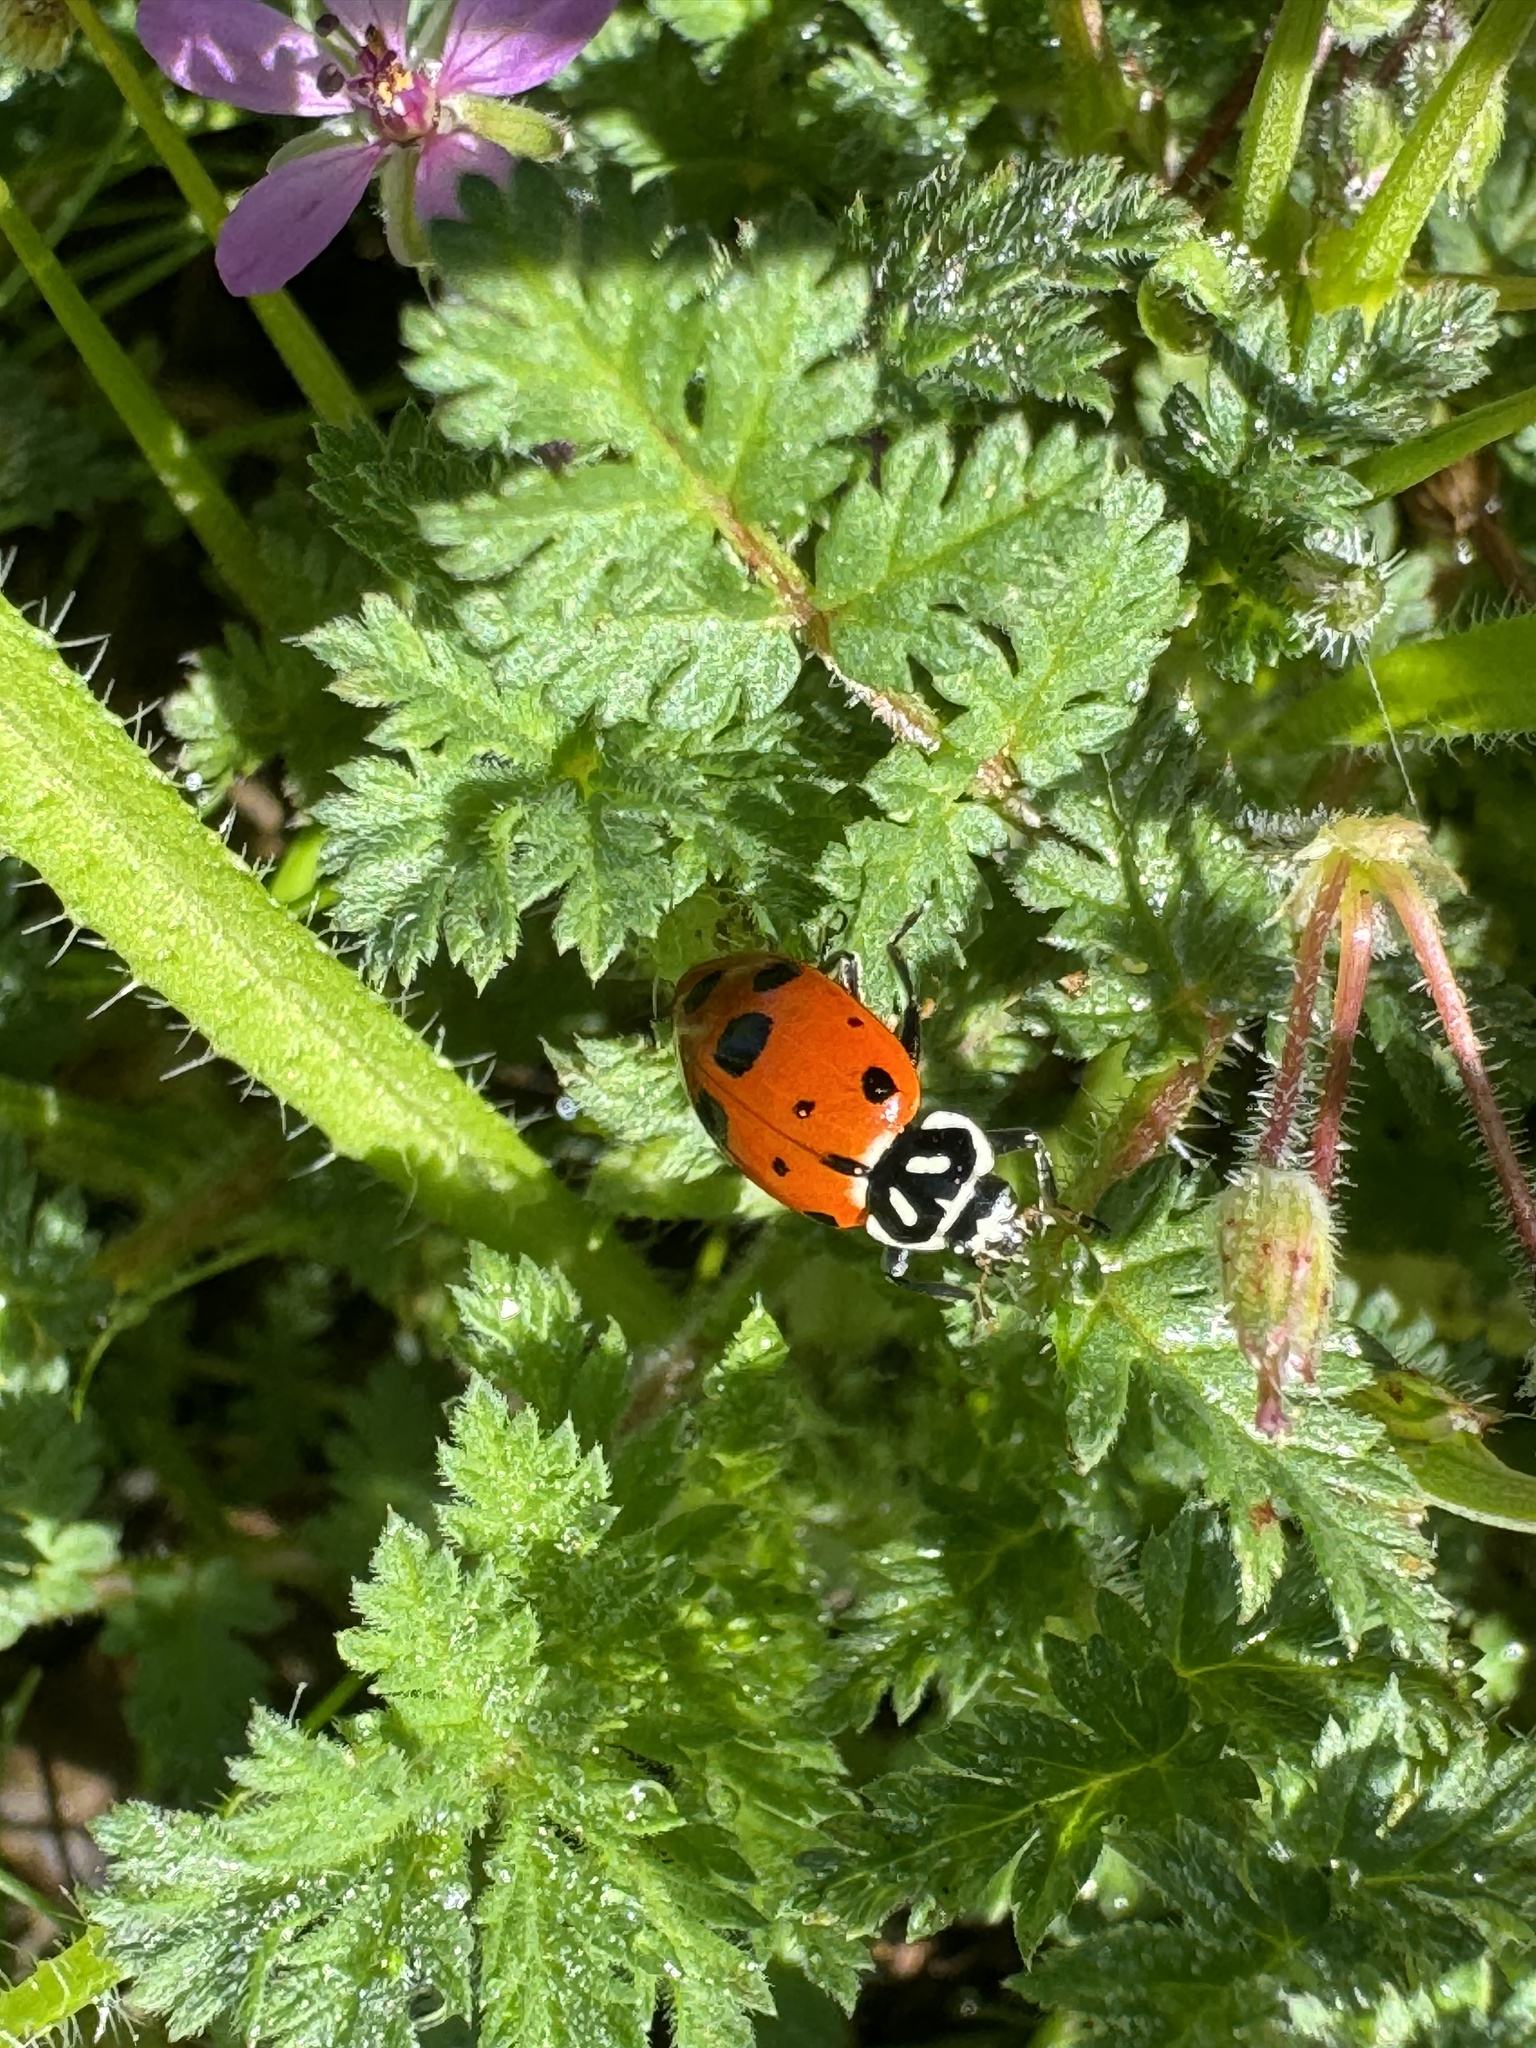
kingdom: Animalia
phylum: Arthropoda
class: Insecta
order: Coleoptera
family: Coccinellidae
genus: Hippodamia
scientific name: Hippodamia convergens
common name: Convergent lady beetle
